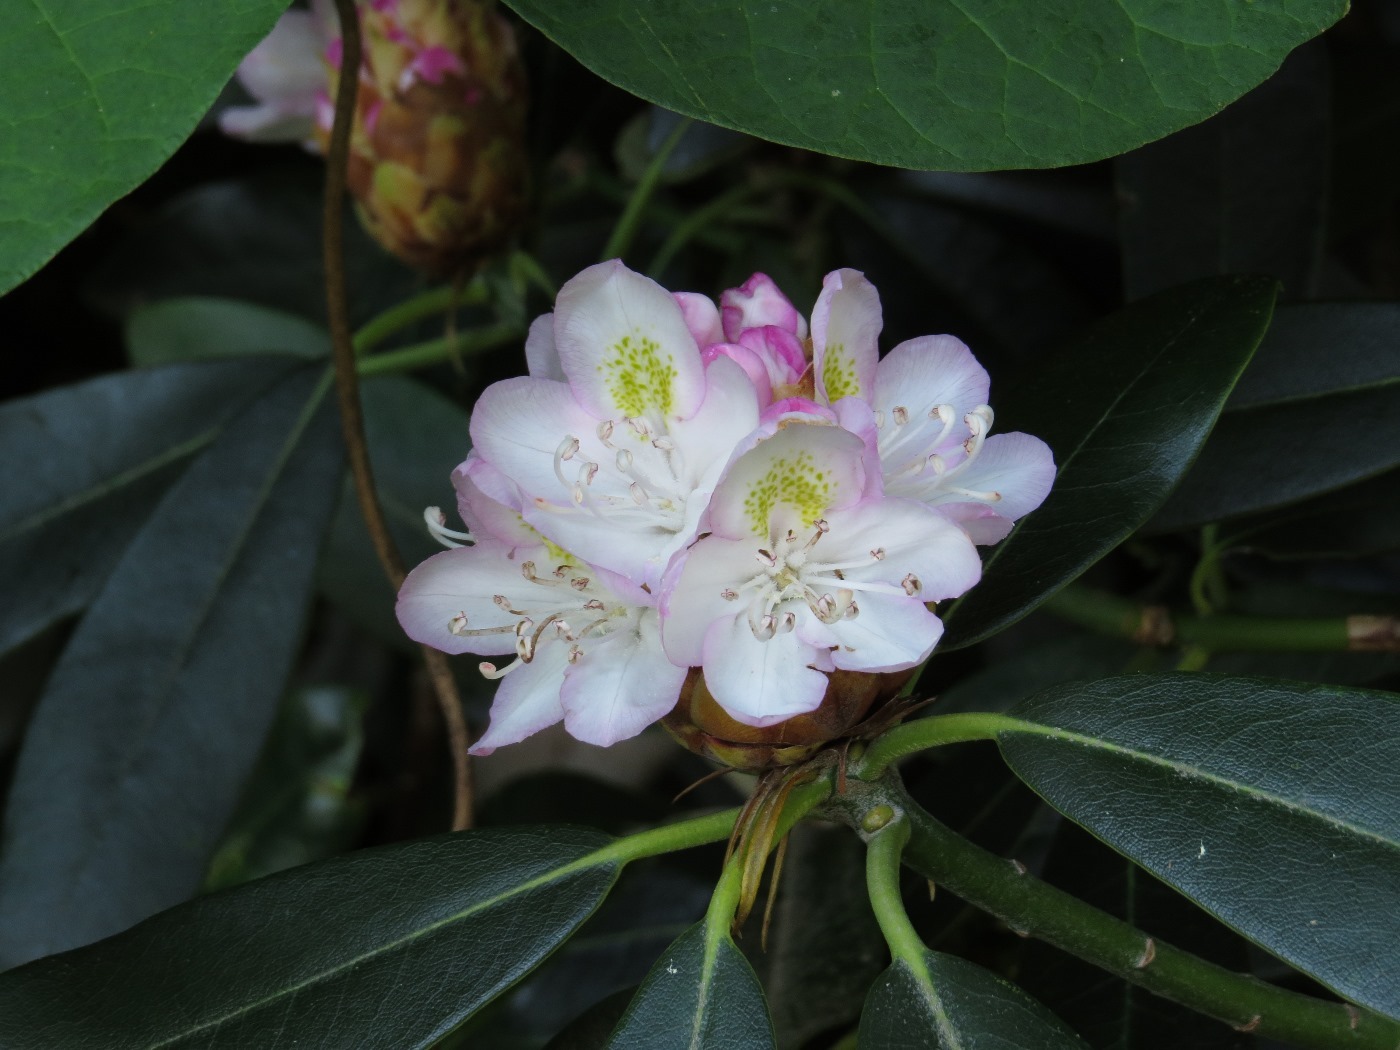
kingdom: Plantae
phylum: Tracheophyta
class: Magnoliopsida
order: Ericales
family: Ericaceae
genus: Rhododendron
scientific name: Rhododendron maximum
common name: Great rhododendron
